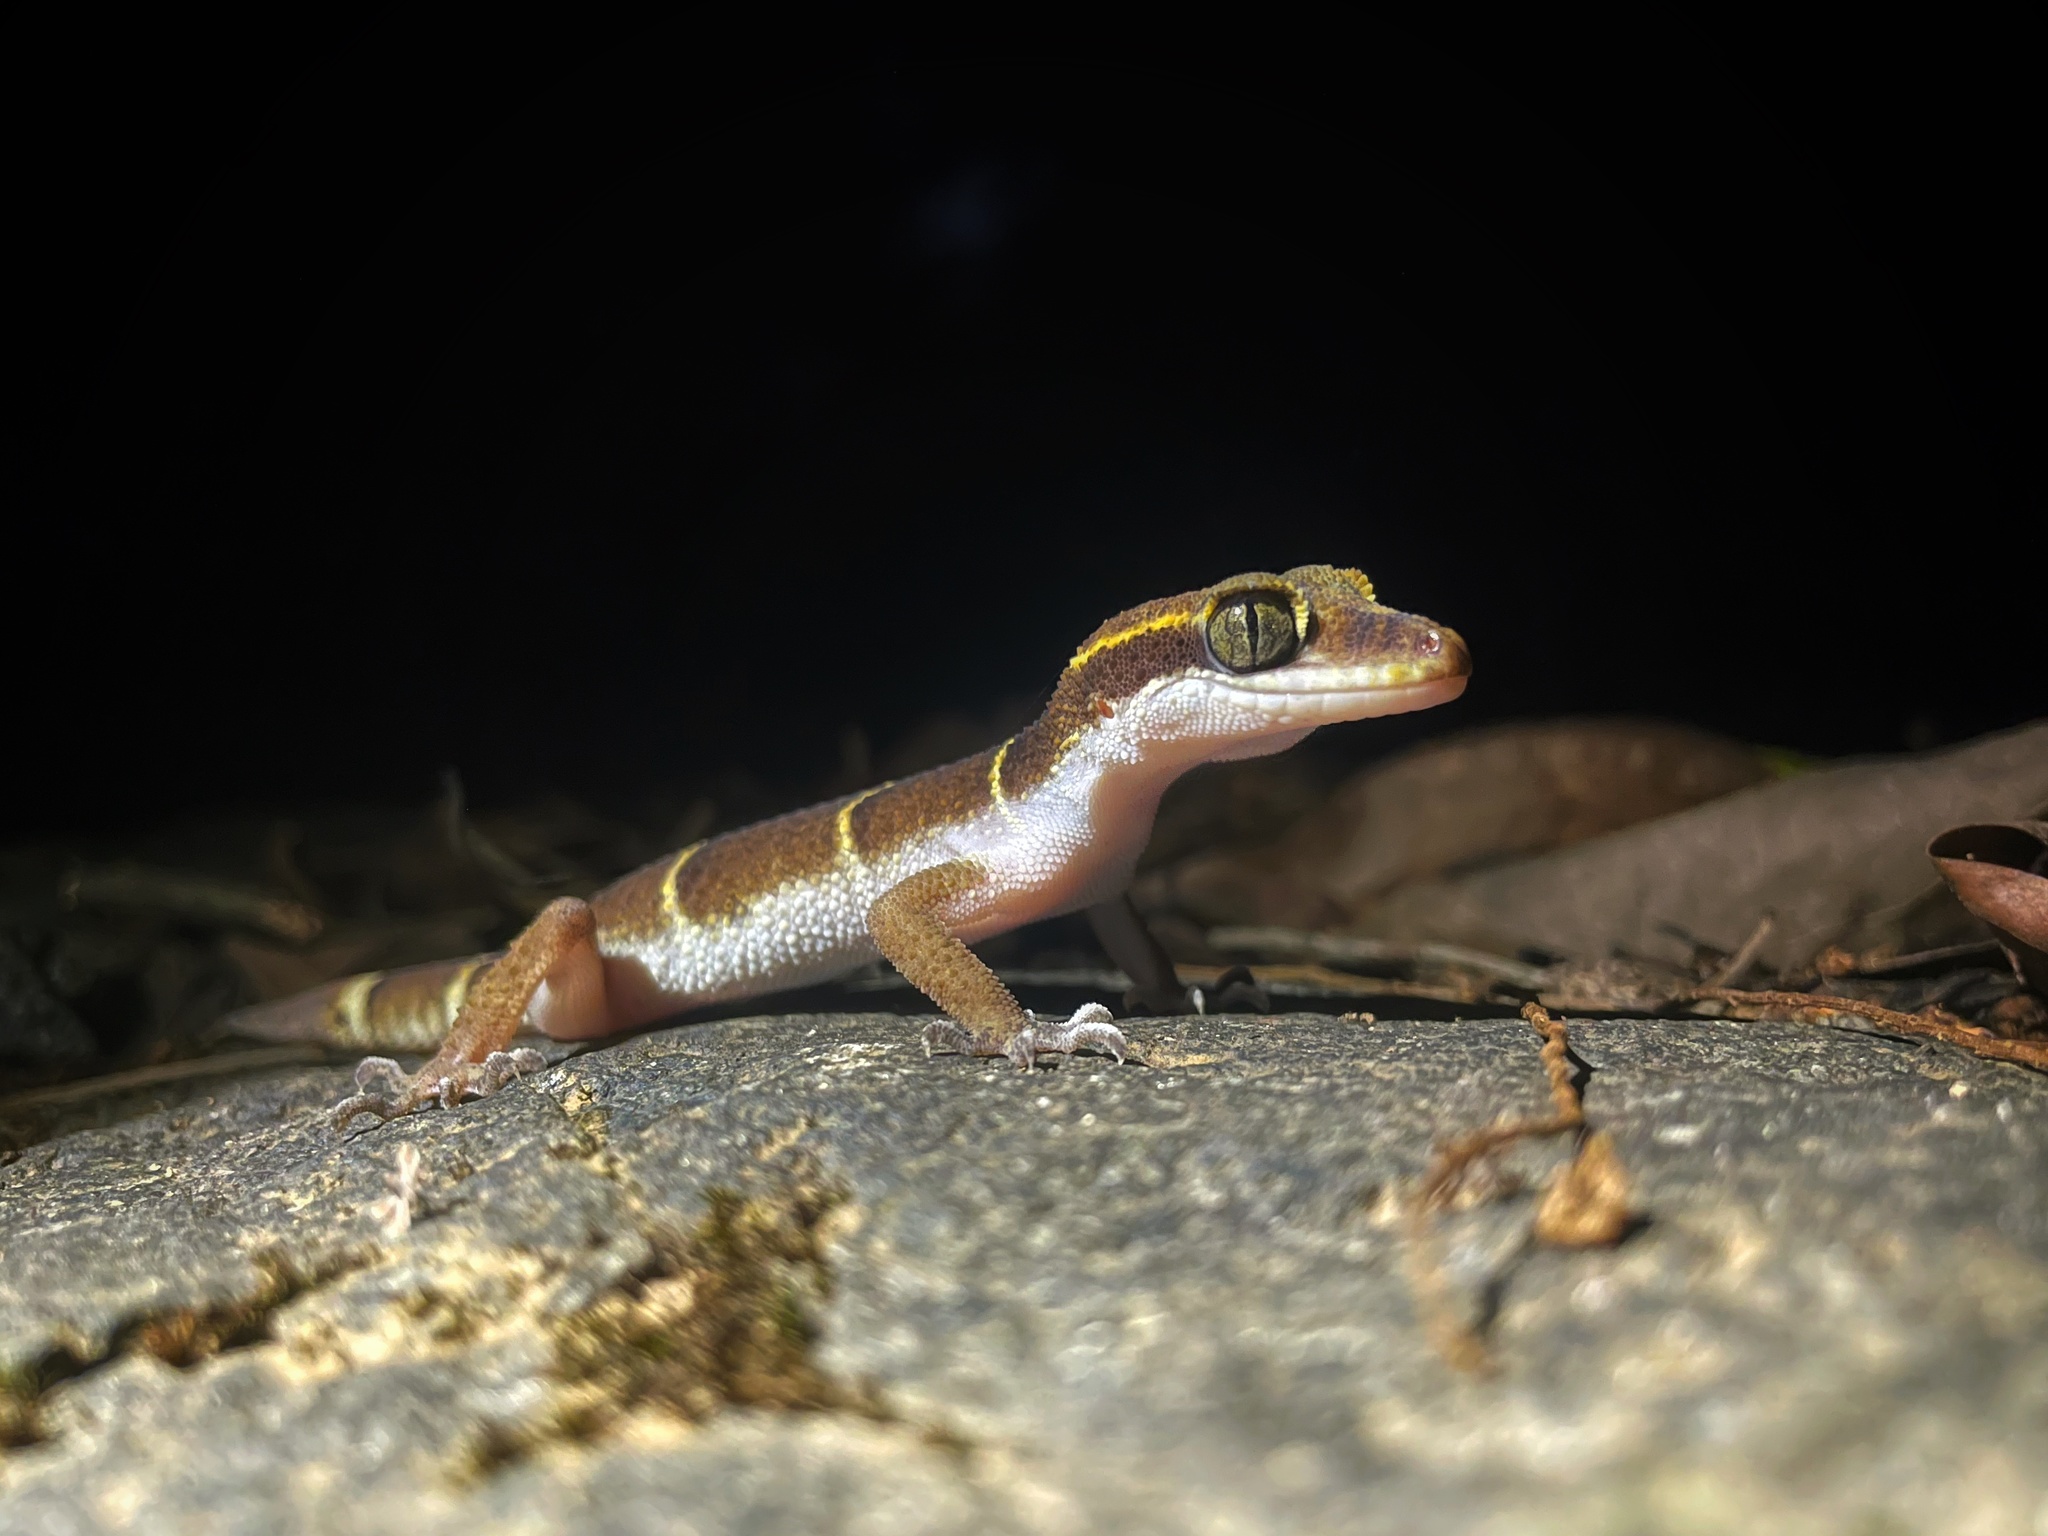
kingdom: Animalia
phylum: Chordata
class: Squamata
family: Gekkonidae
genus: Cyrtodactylus
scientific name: Cyrtodactylus albofasciatus
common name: Boulenger’s indian gecko
